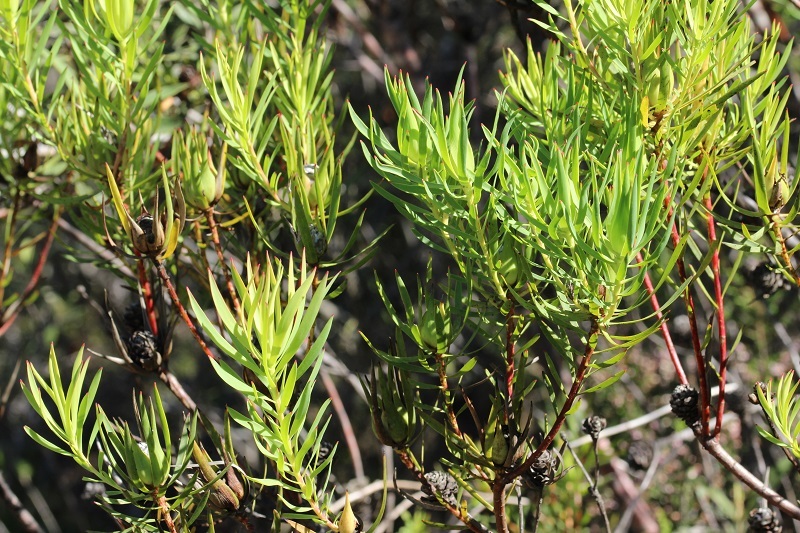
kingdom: Plantae
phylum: Tracheophyta
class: Magnoliopsida
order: Proteales
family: Proteaceae
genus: Leucadendron
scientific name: Leucadendron salignum
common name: Common sunshine conebush
